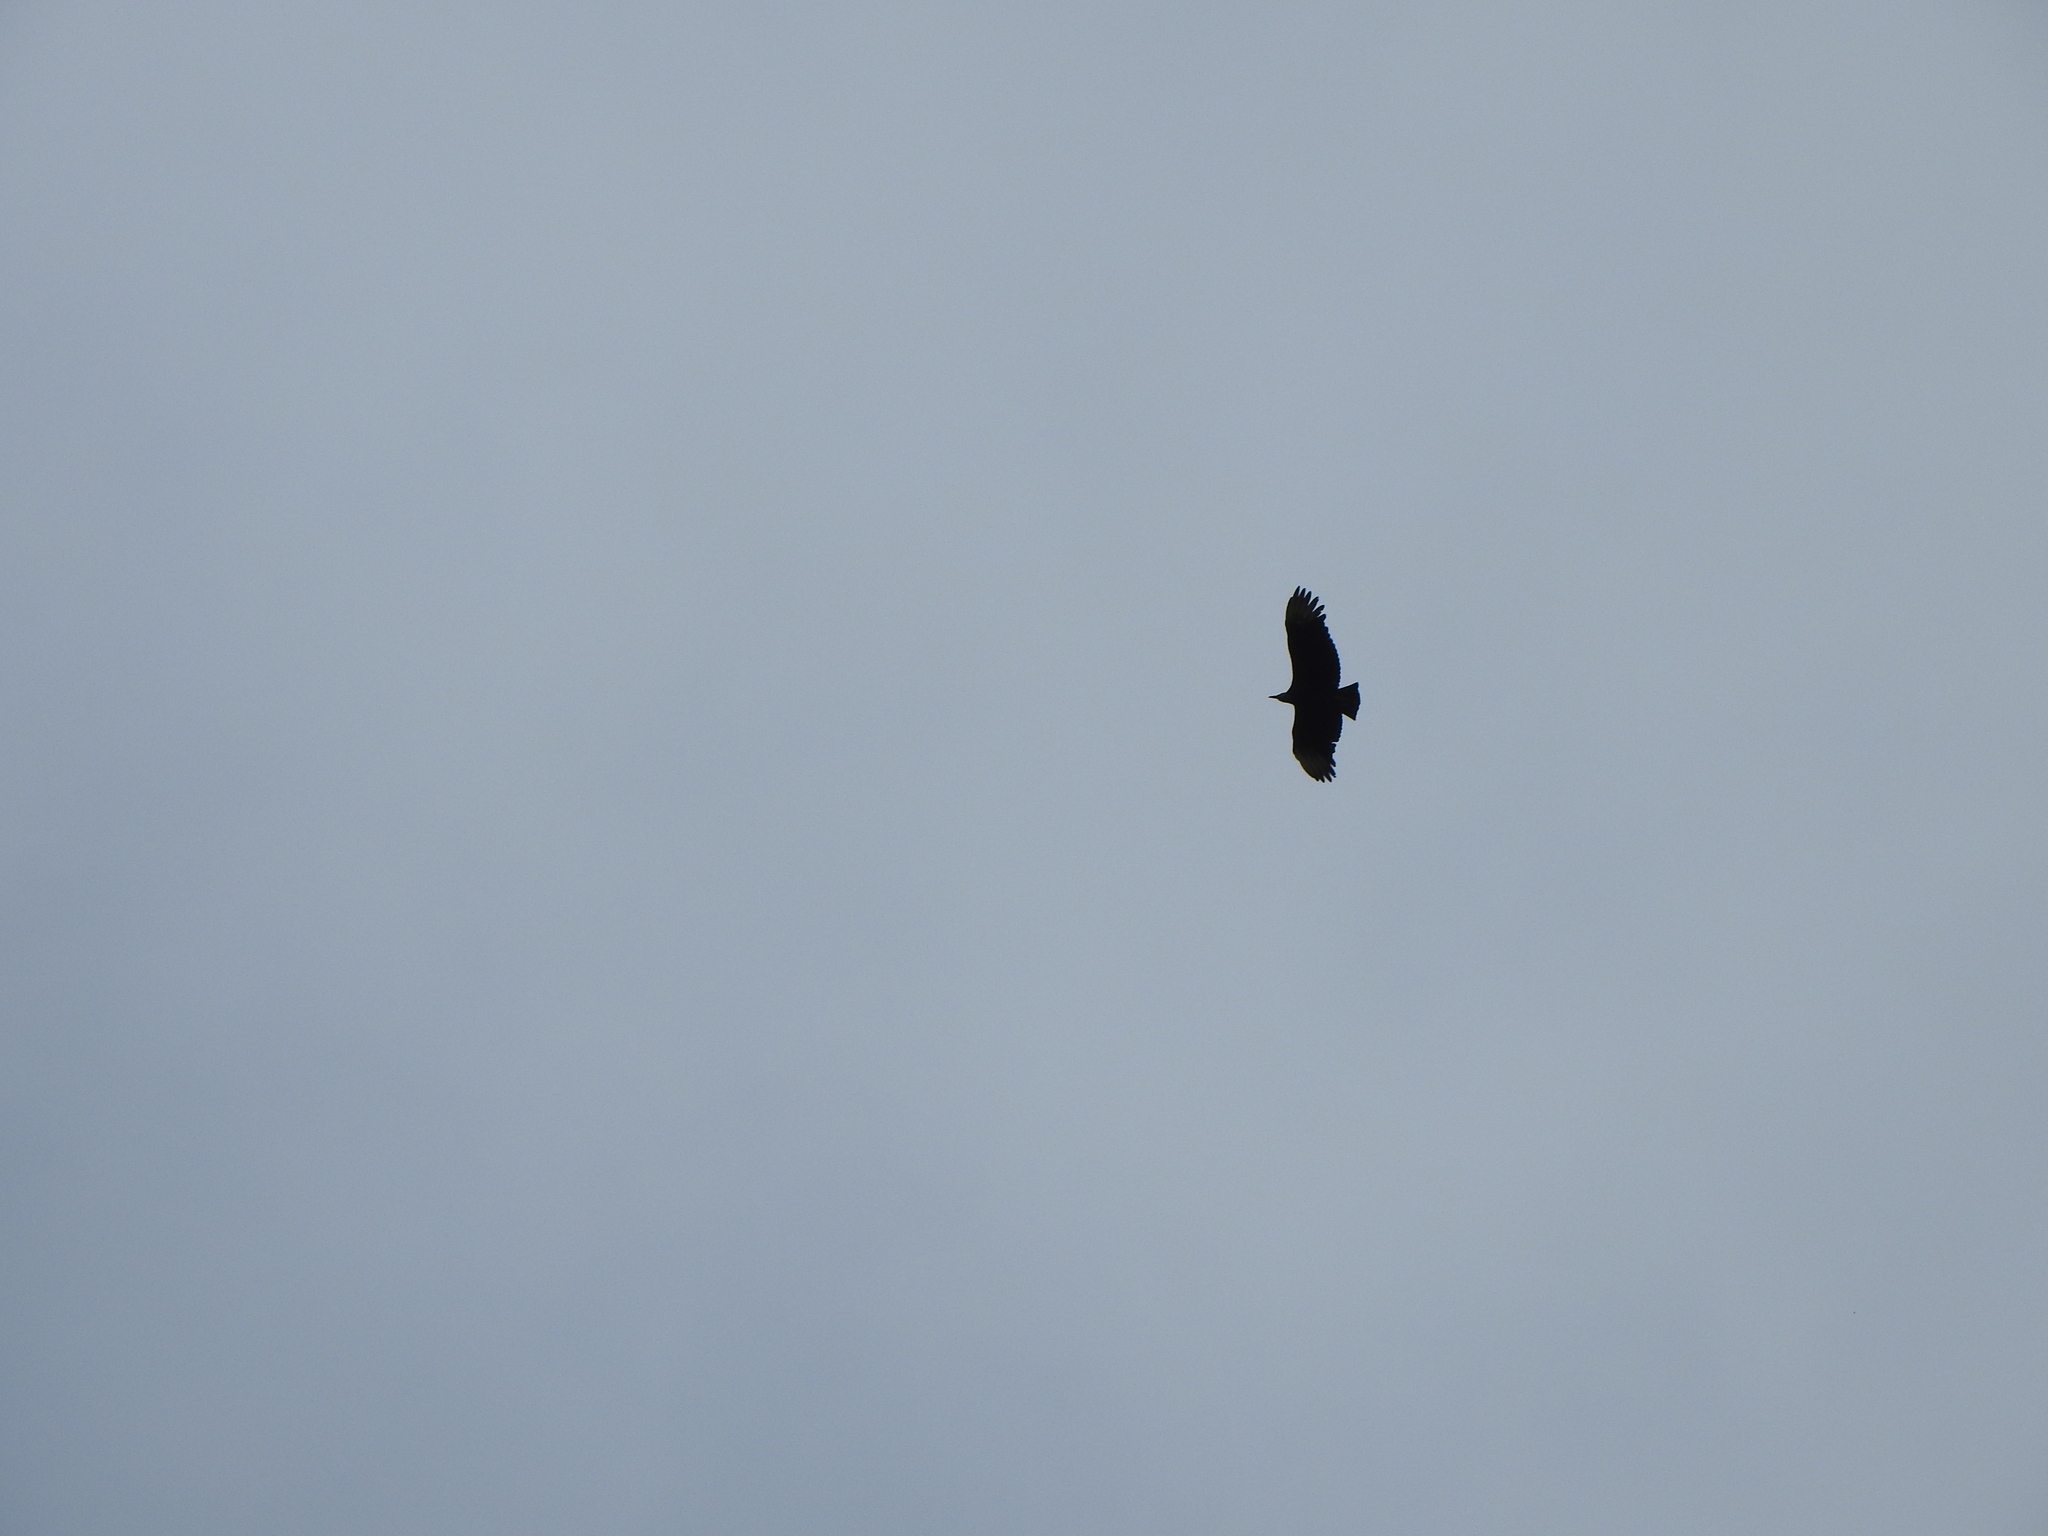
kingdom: Animalia
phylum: Chordata
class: Aves
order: Accipitriformes
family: Cathartidae
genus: Coragyps
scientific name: Coragyps atratus
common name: Black vulture
